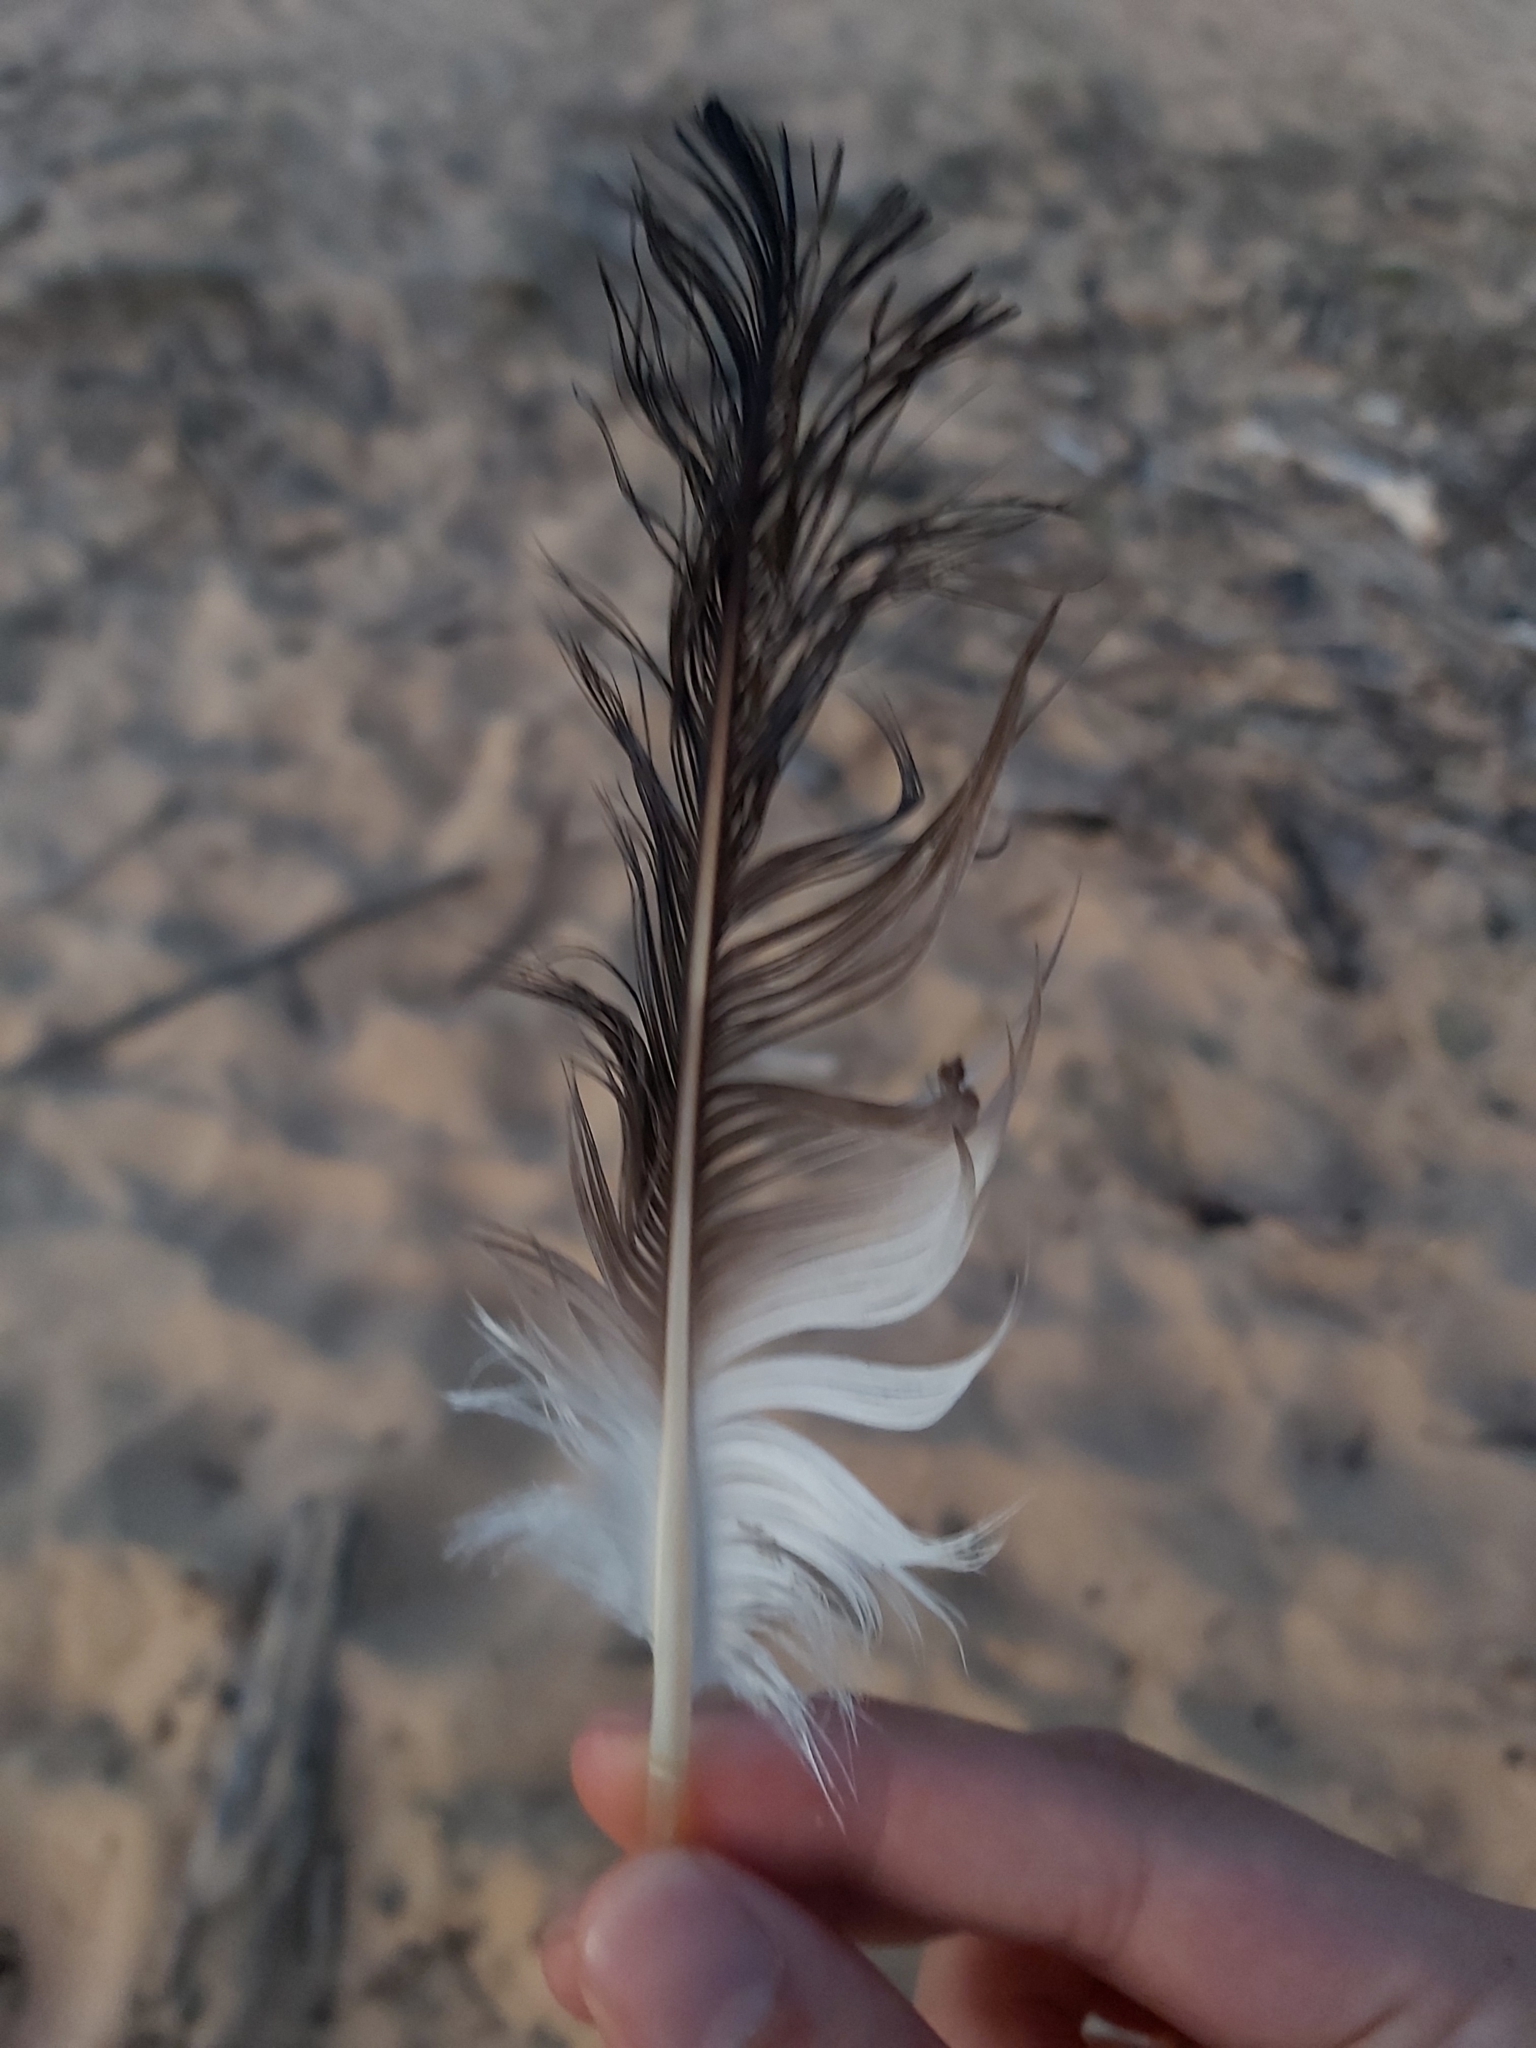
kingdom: Animalia
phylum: Chordata
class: Aves
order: Suliformes
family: Sulidae
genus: Morus
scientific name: Morus serrator
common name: Australasian gannet
